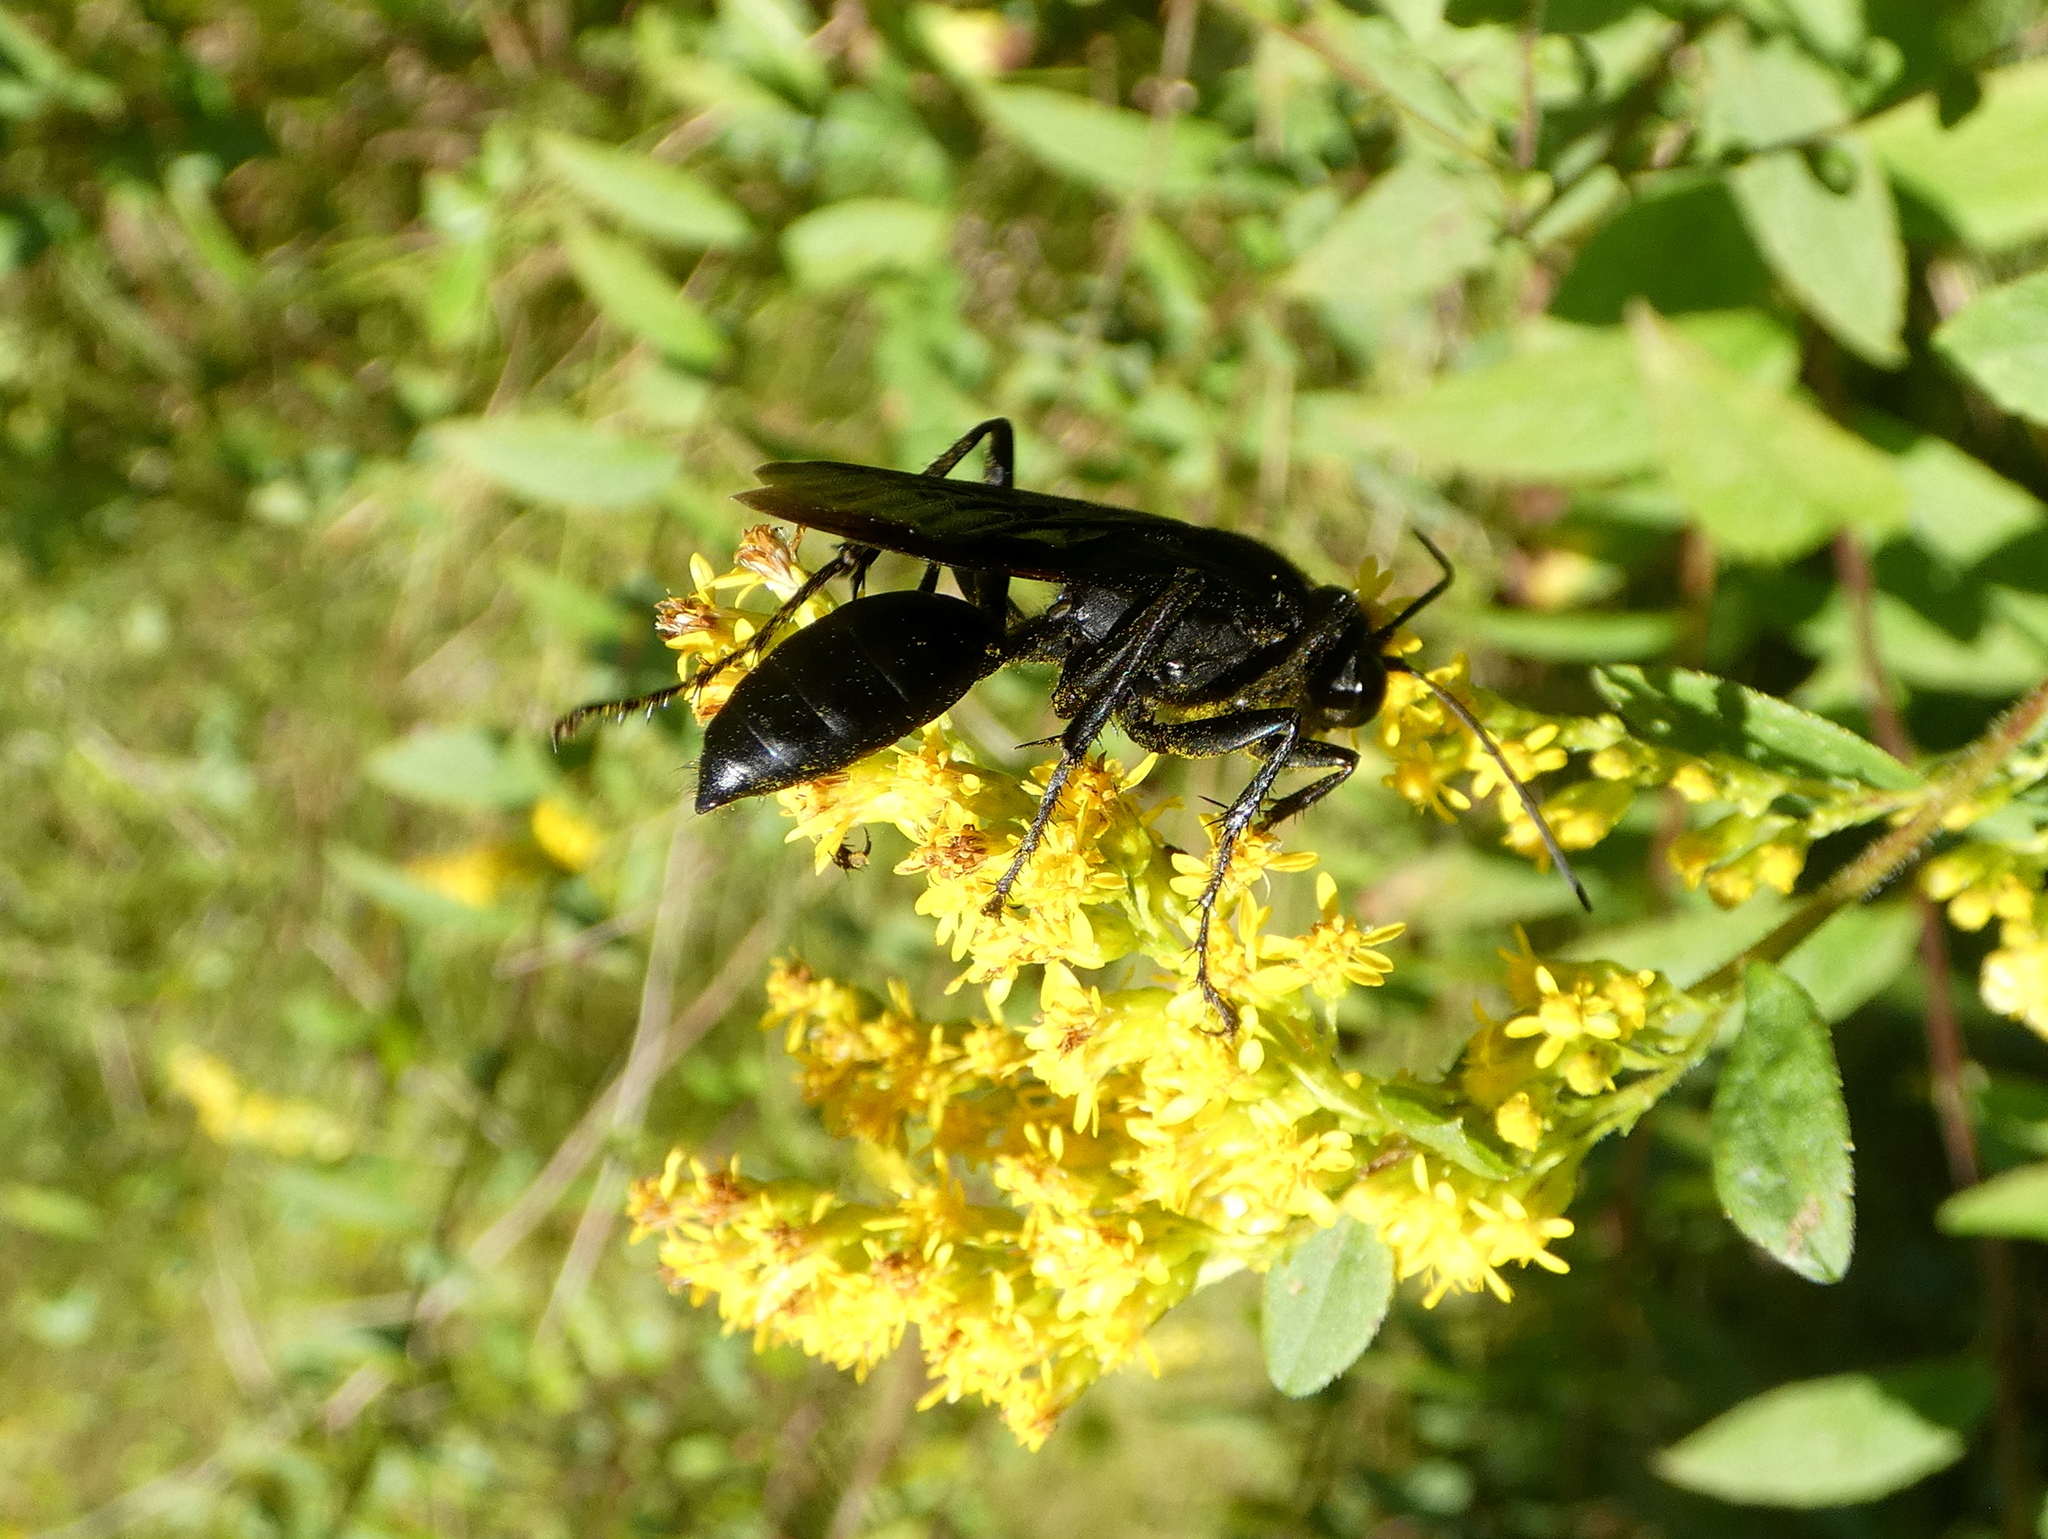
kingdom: Animalia
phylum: Arthropoda
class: Insecta
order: Hymenoptera
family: Sphecidae
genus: Sphex
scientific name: Sphex pensylvanicus
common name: Great black digger wasp
